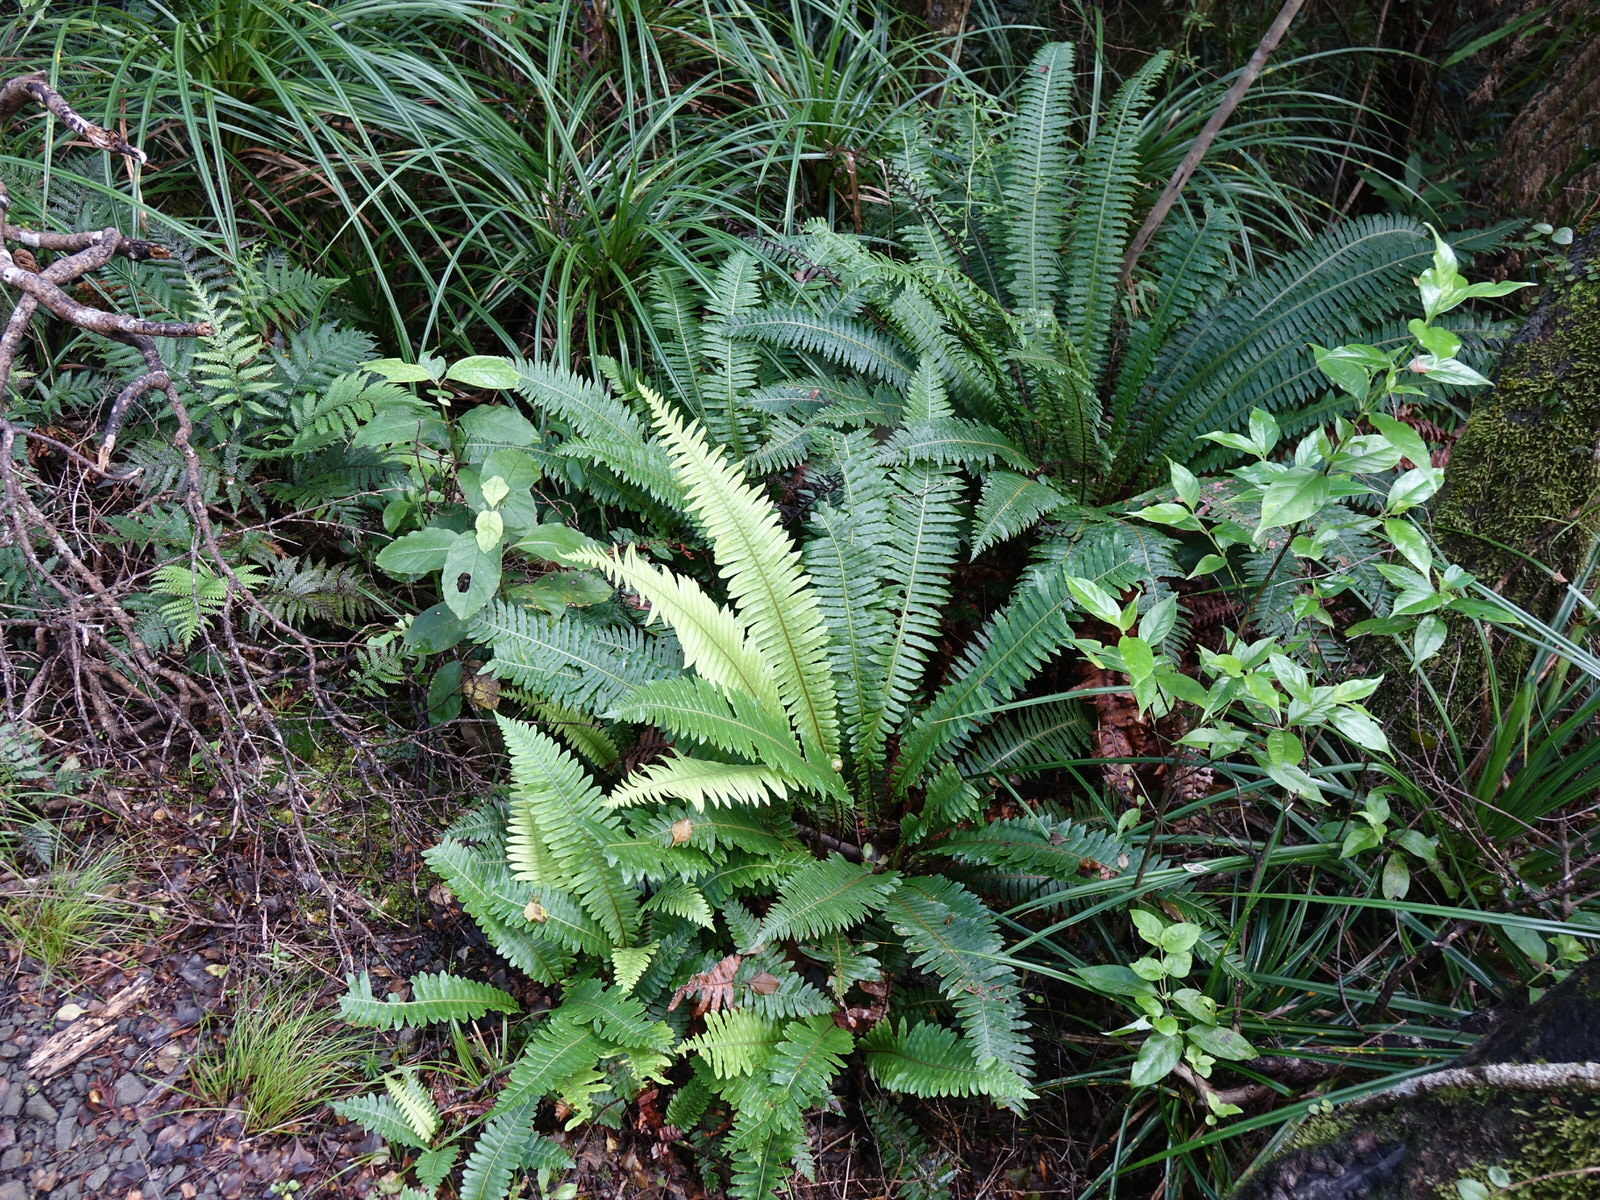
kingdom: Plantae
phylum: Tracheophyta
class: Polypodiopsida
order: Polypodiales
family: Blechnaceae
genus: Lomaria
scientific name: Lomaria discolor
